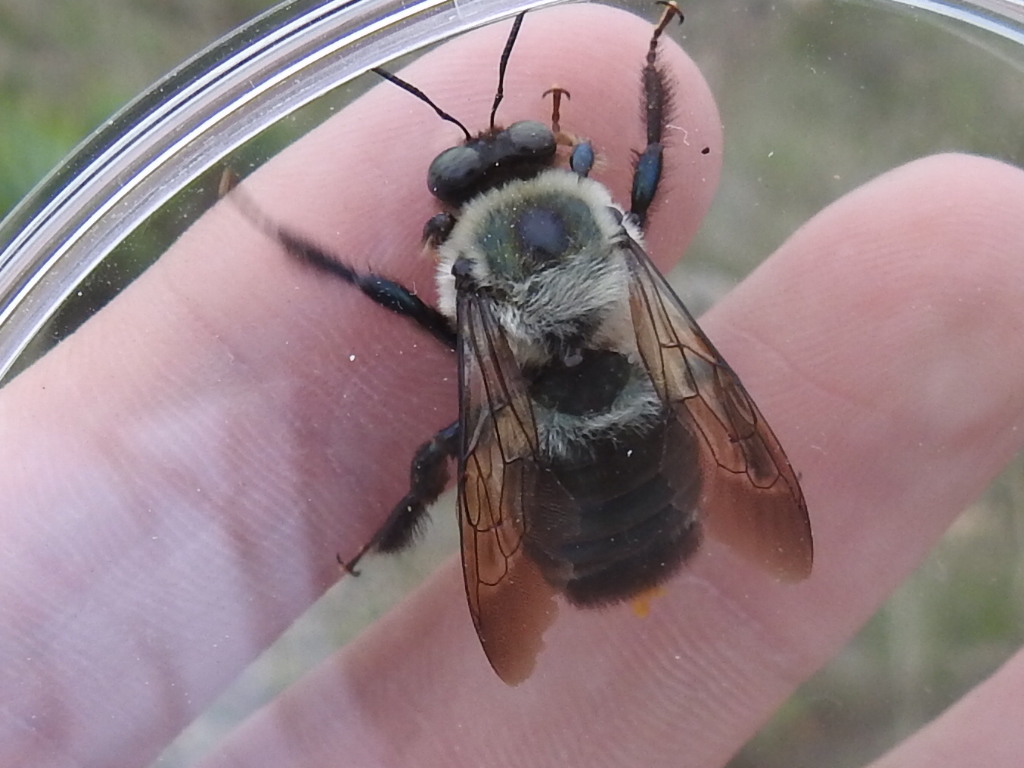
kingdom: Animalia
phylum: Arthropoda
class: Insecta
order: Hymenoptera
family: Apidae
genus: Xylocopa
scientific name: Xylocopa virginica
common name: Carpenter bee
